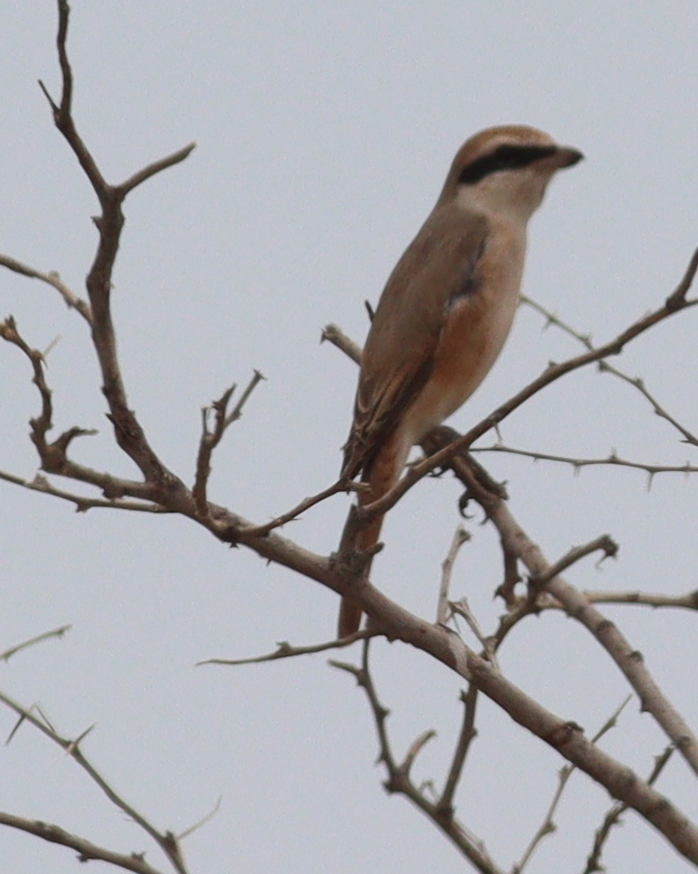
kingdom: Animalia
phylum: Chordata
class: Aves
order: Passeriformes
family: Laniidae
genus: Lanius
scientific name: Lanius phoenicuroides
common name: Red-tailed shrike
